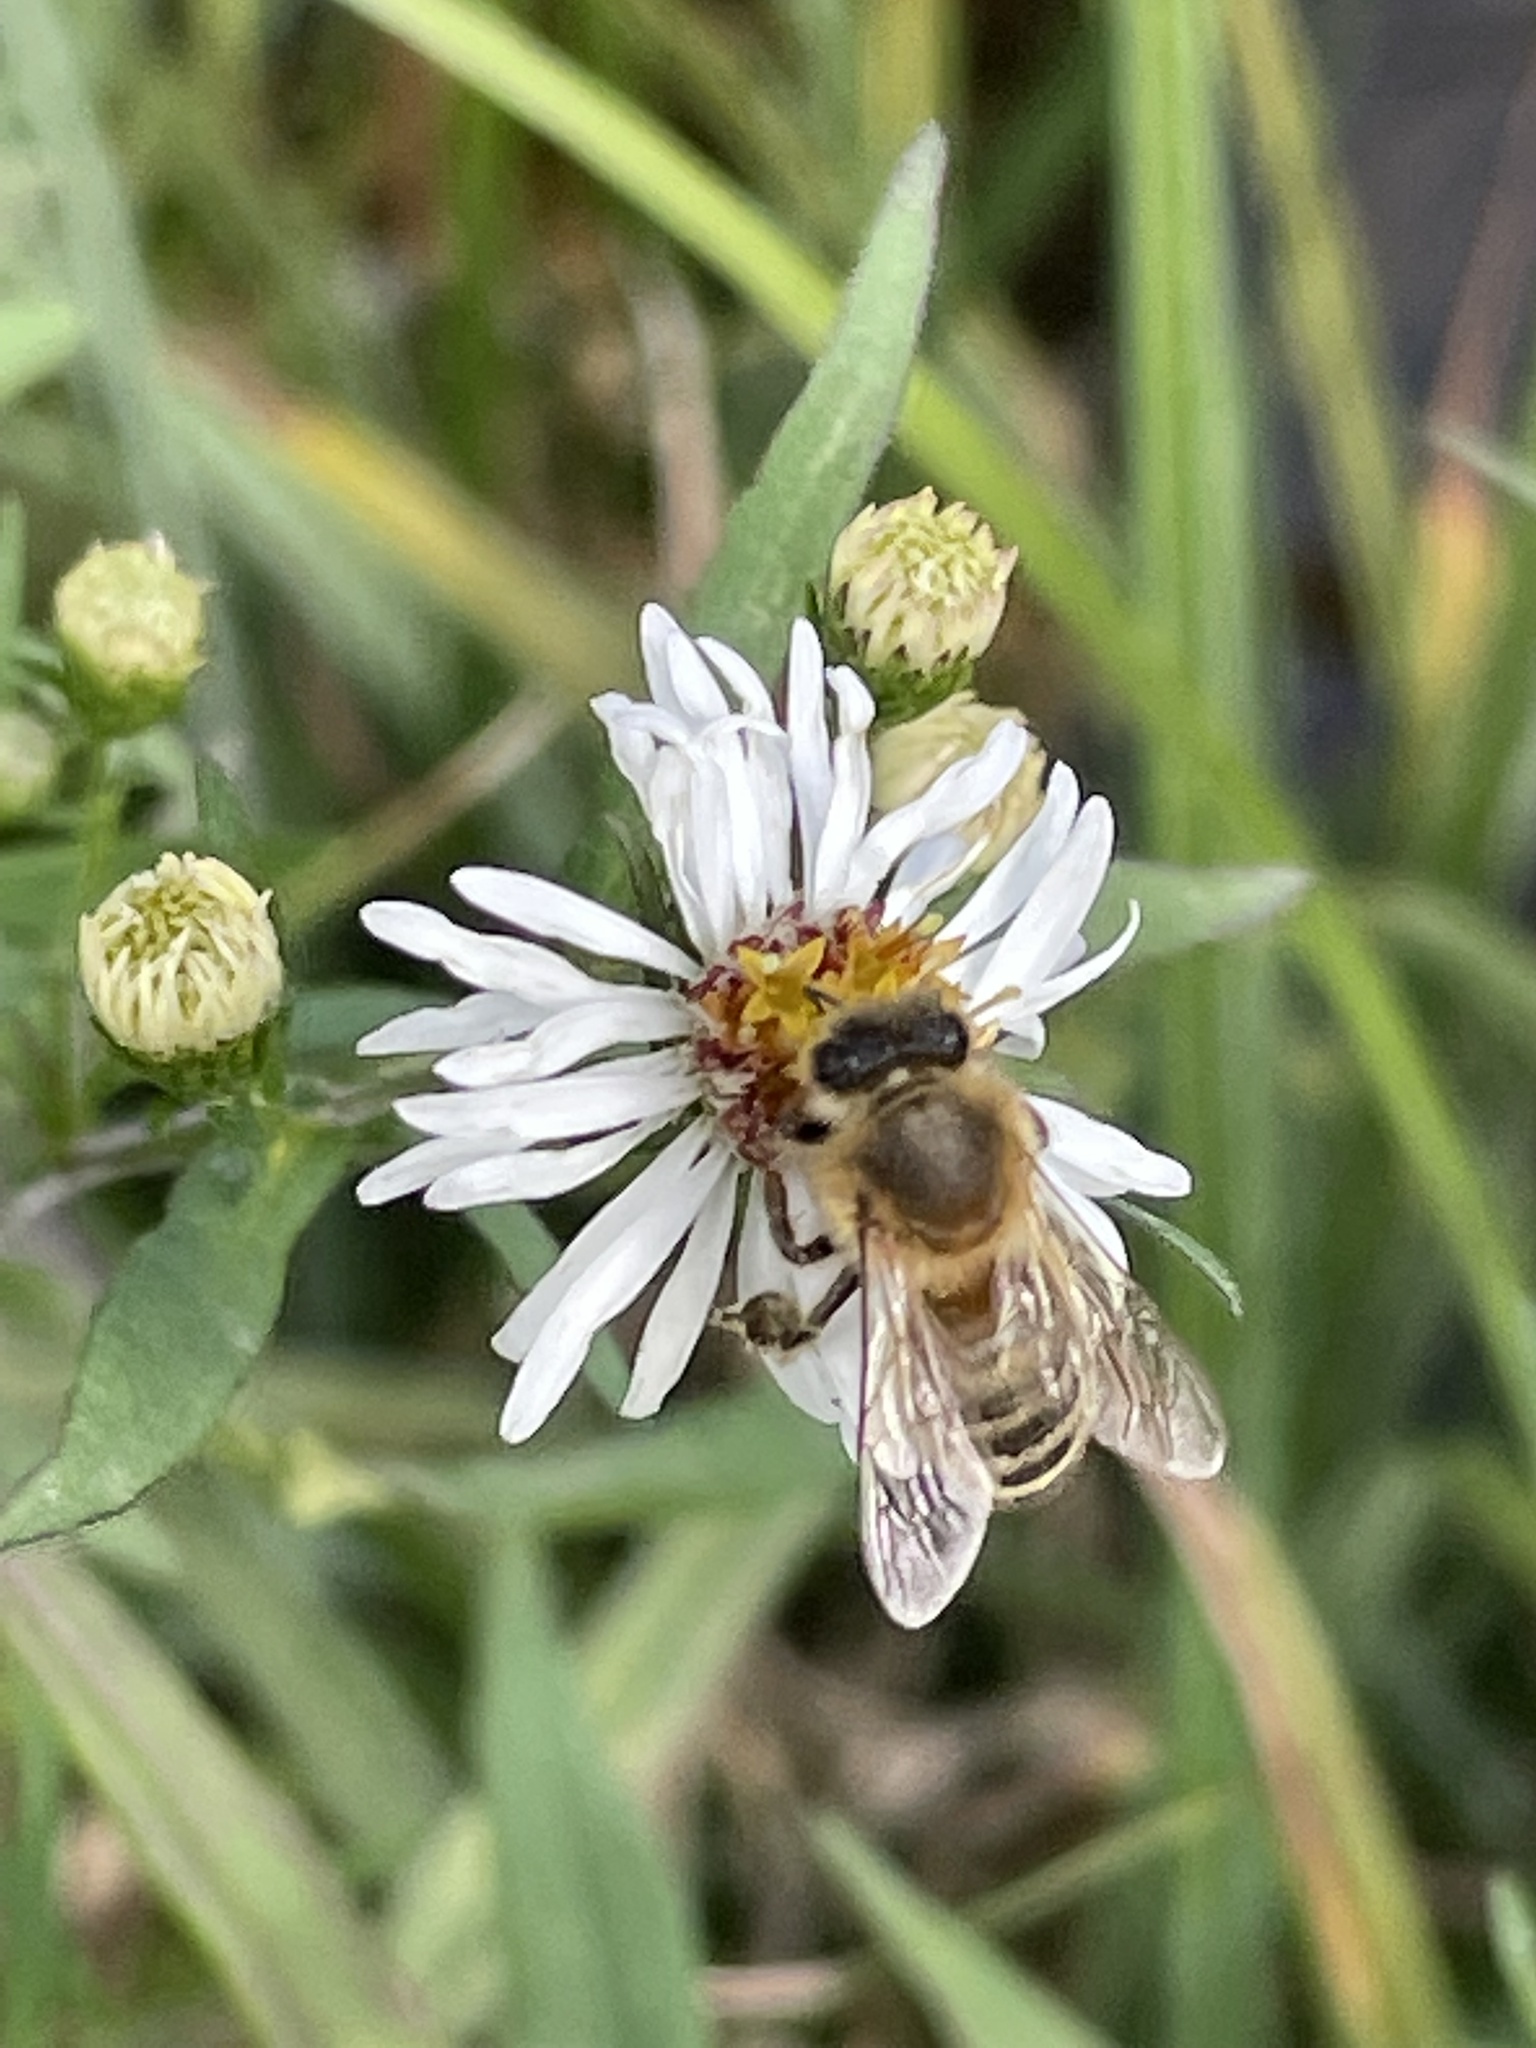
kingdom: Animalia
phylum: Arthropoda
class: Insecta
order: Hymenoptera
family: Apidae
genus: Apis
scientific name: Apis mellifera
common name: Honey bee
